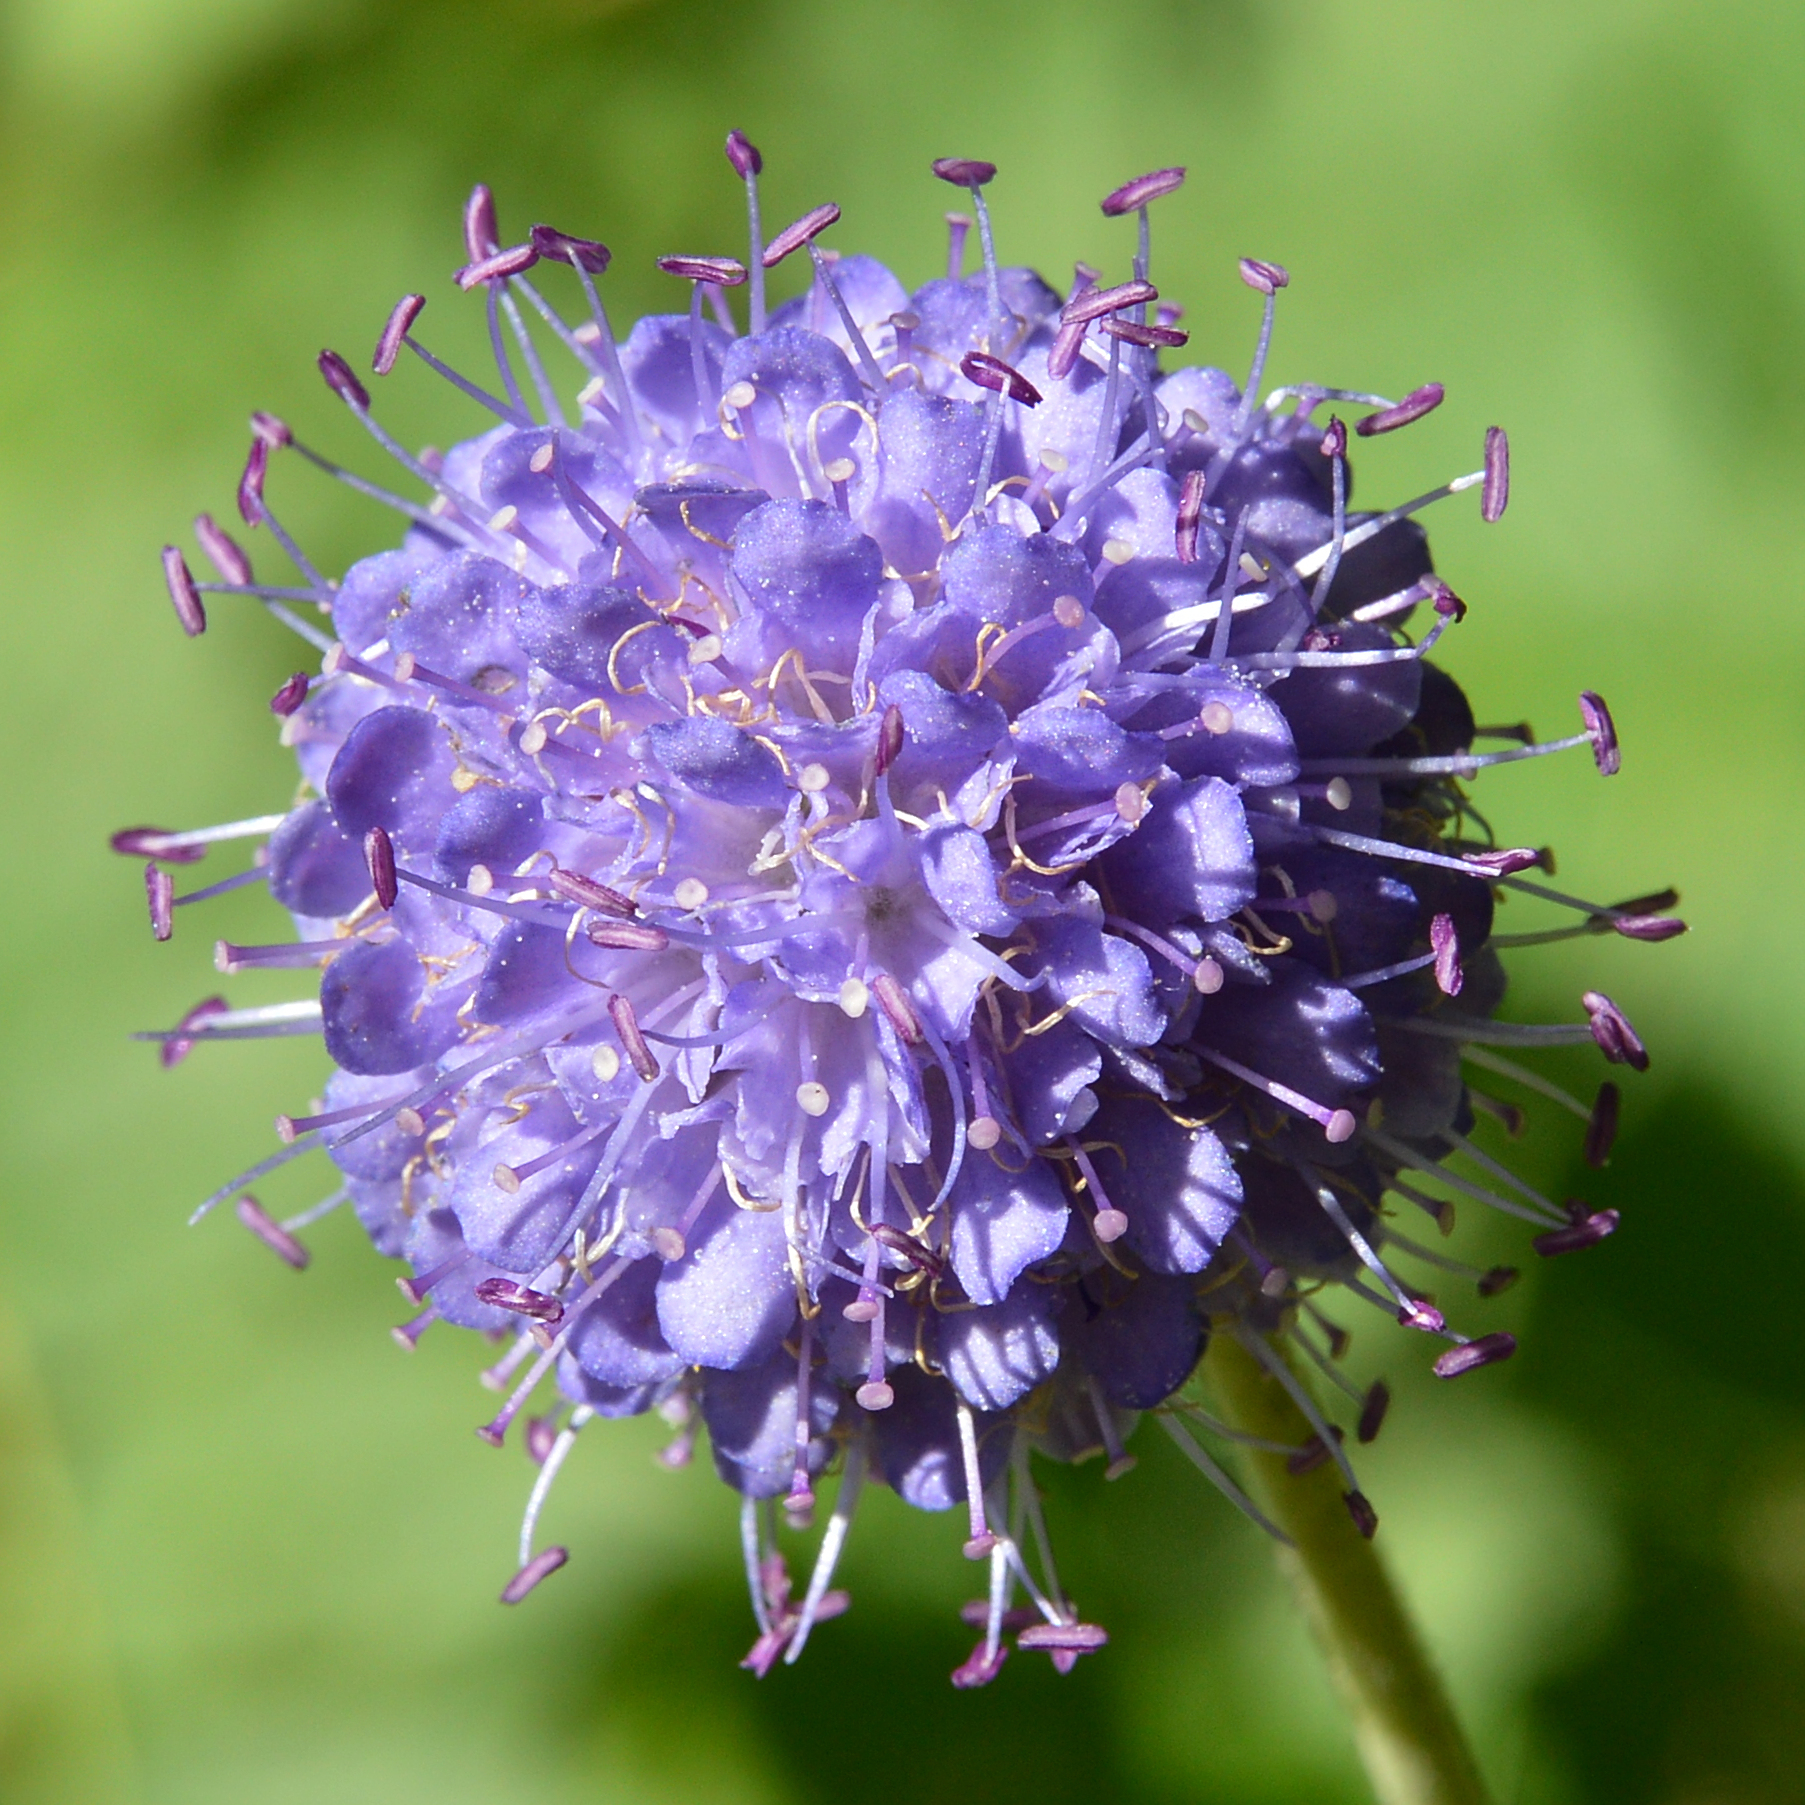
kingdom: Plantae
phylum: Tracheophyta
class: Magnoliopsida
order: Dipsacales
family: Caprifoliaceae
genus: Succisa
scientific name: Succisa pratensis
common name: Devil's-bit
